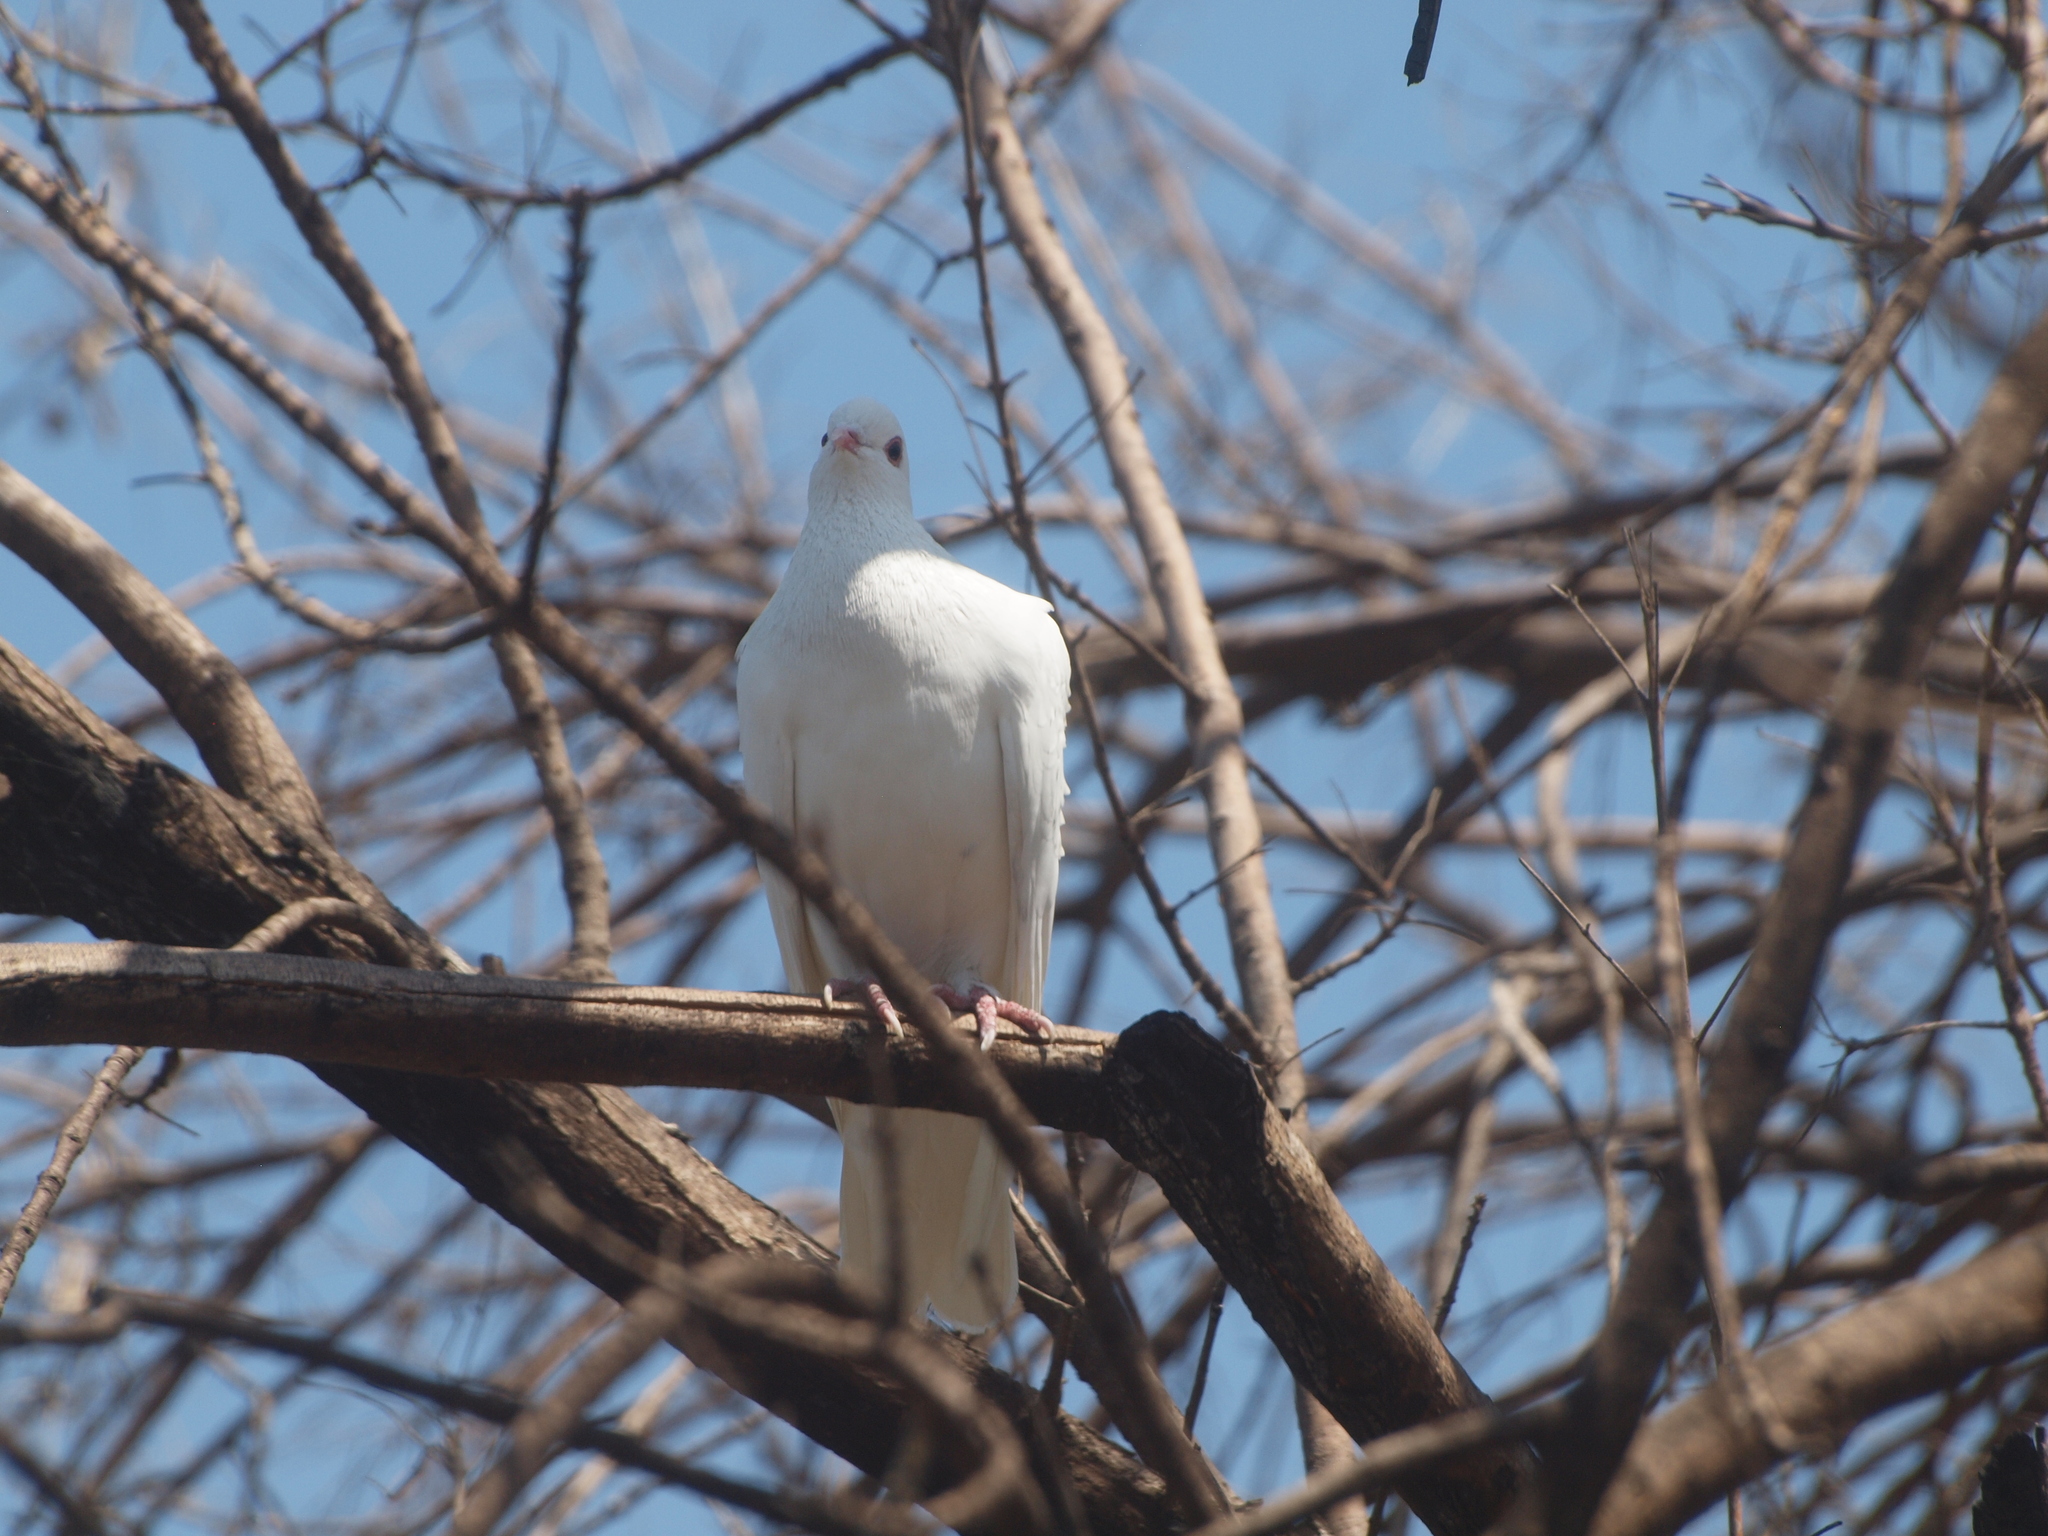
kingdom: Animalia
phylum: Chordata
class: Aves
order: Columbiformes
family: Columbidae
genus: Columba
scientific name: Columba livia
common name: Rock pigeon
